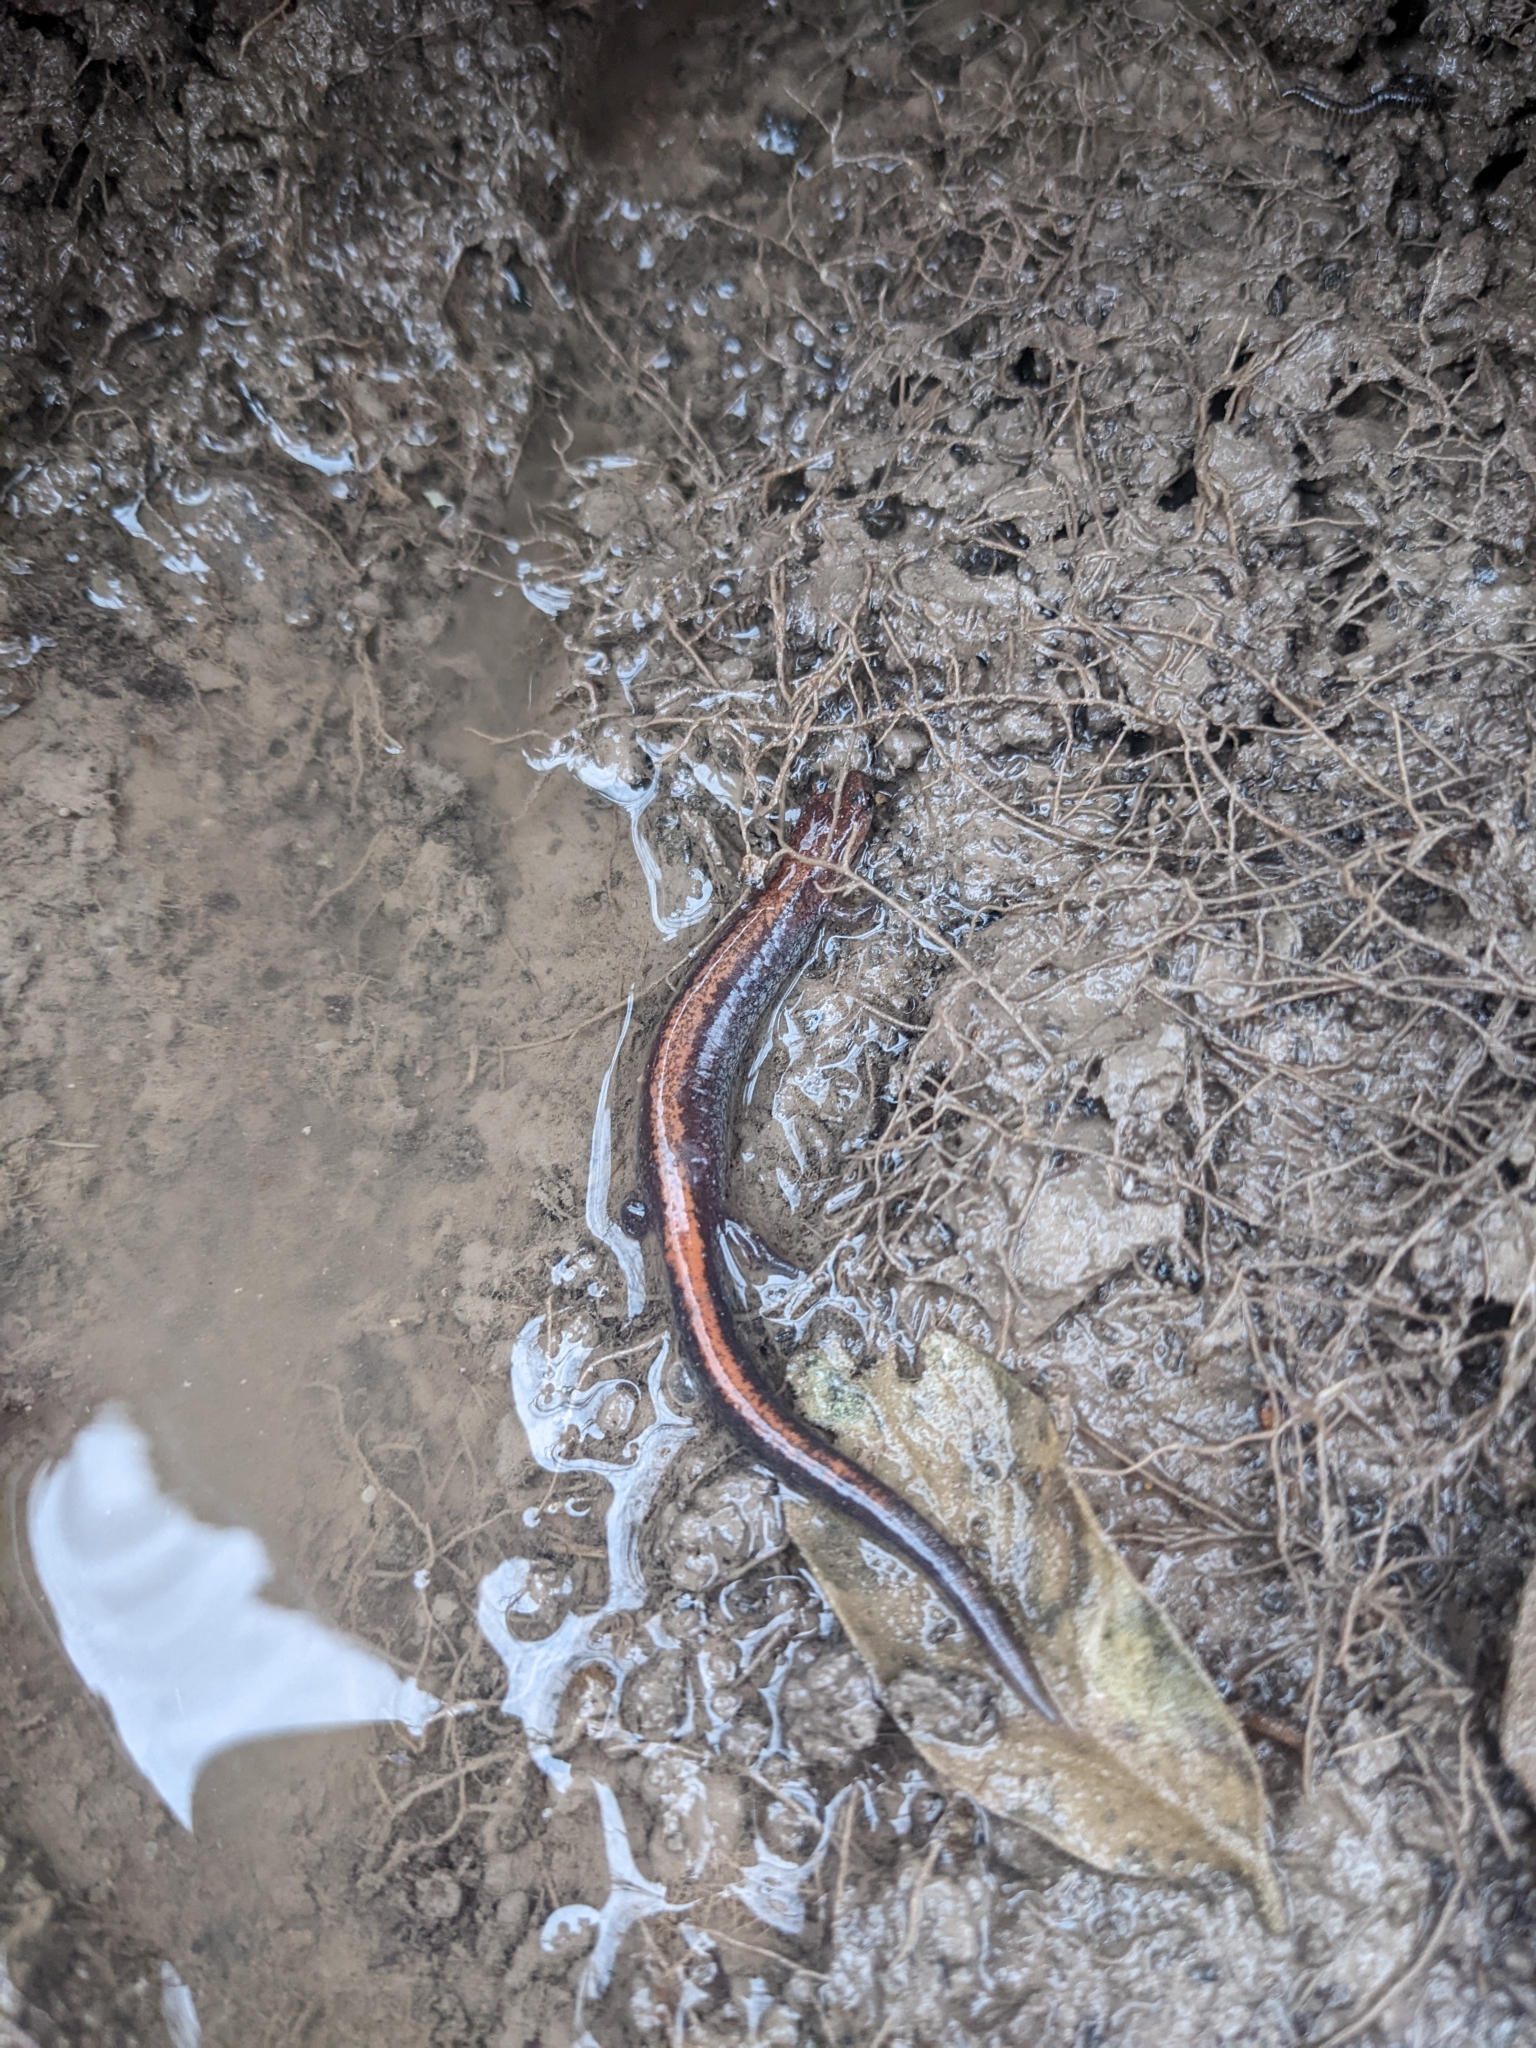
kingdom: Animalia
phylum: Chordata
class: Amphibia
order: Caudata
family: Plethodontidae
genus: Plethodon
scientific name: Plethodon cinereus
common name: Redback salamander
